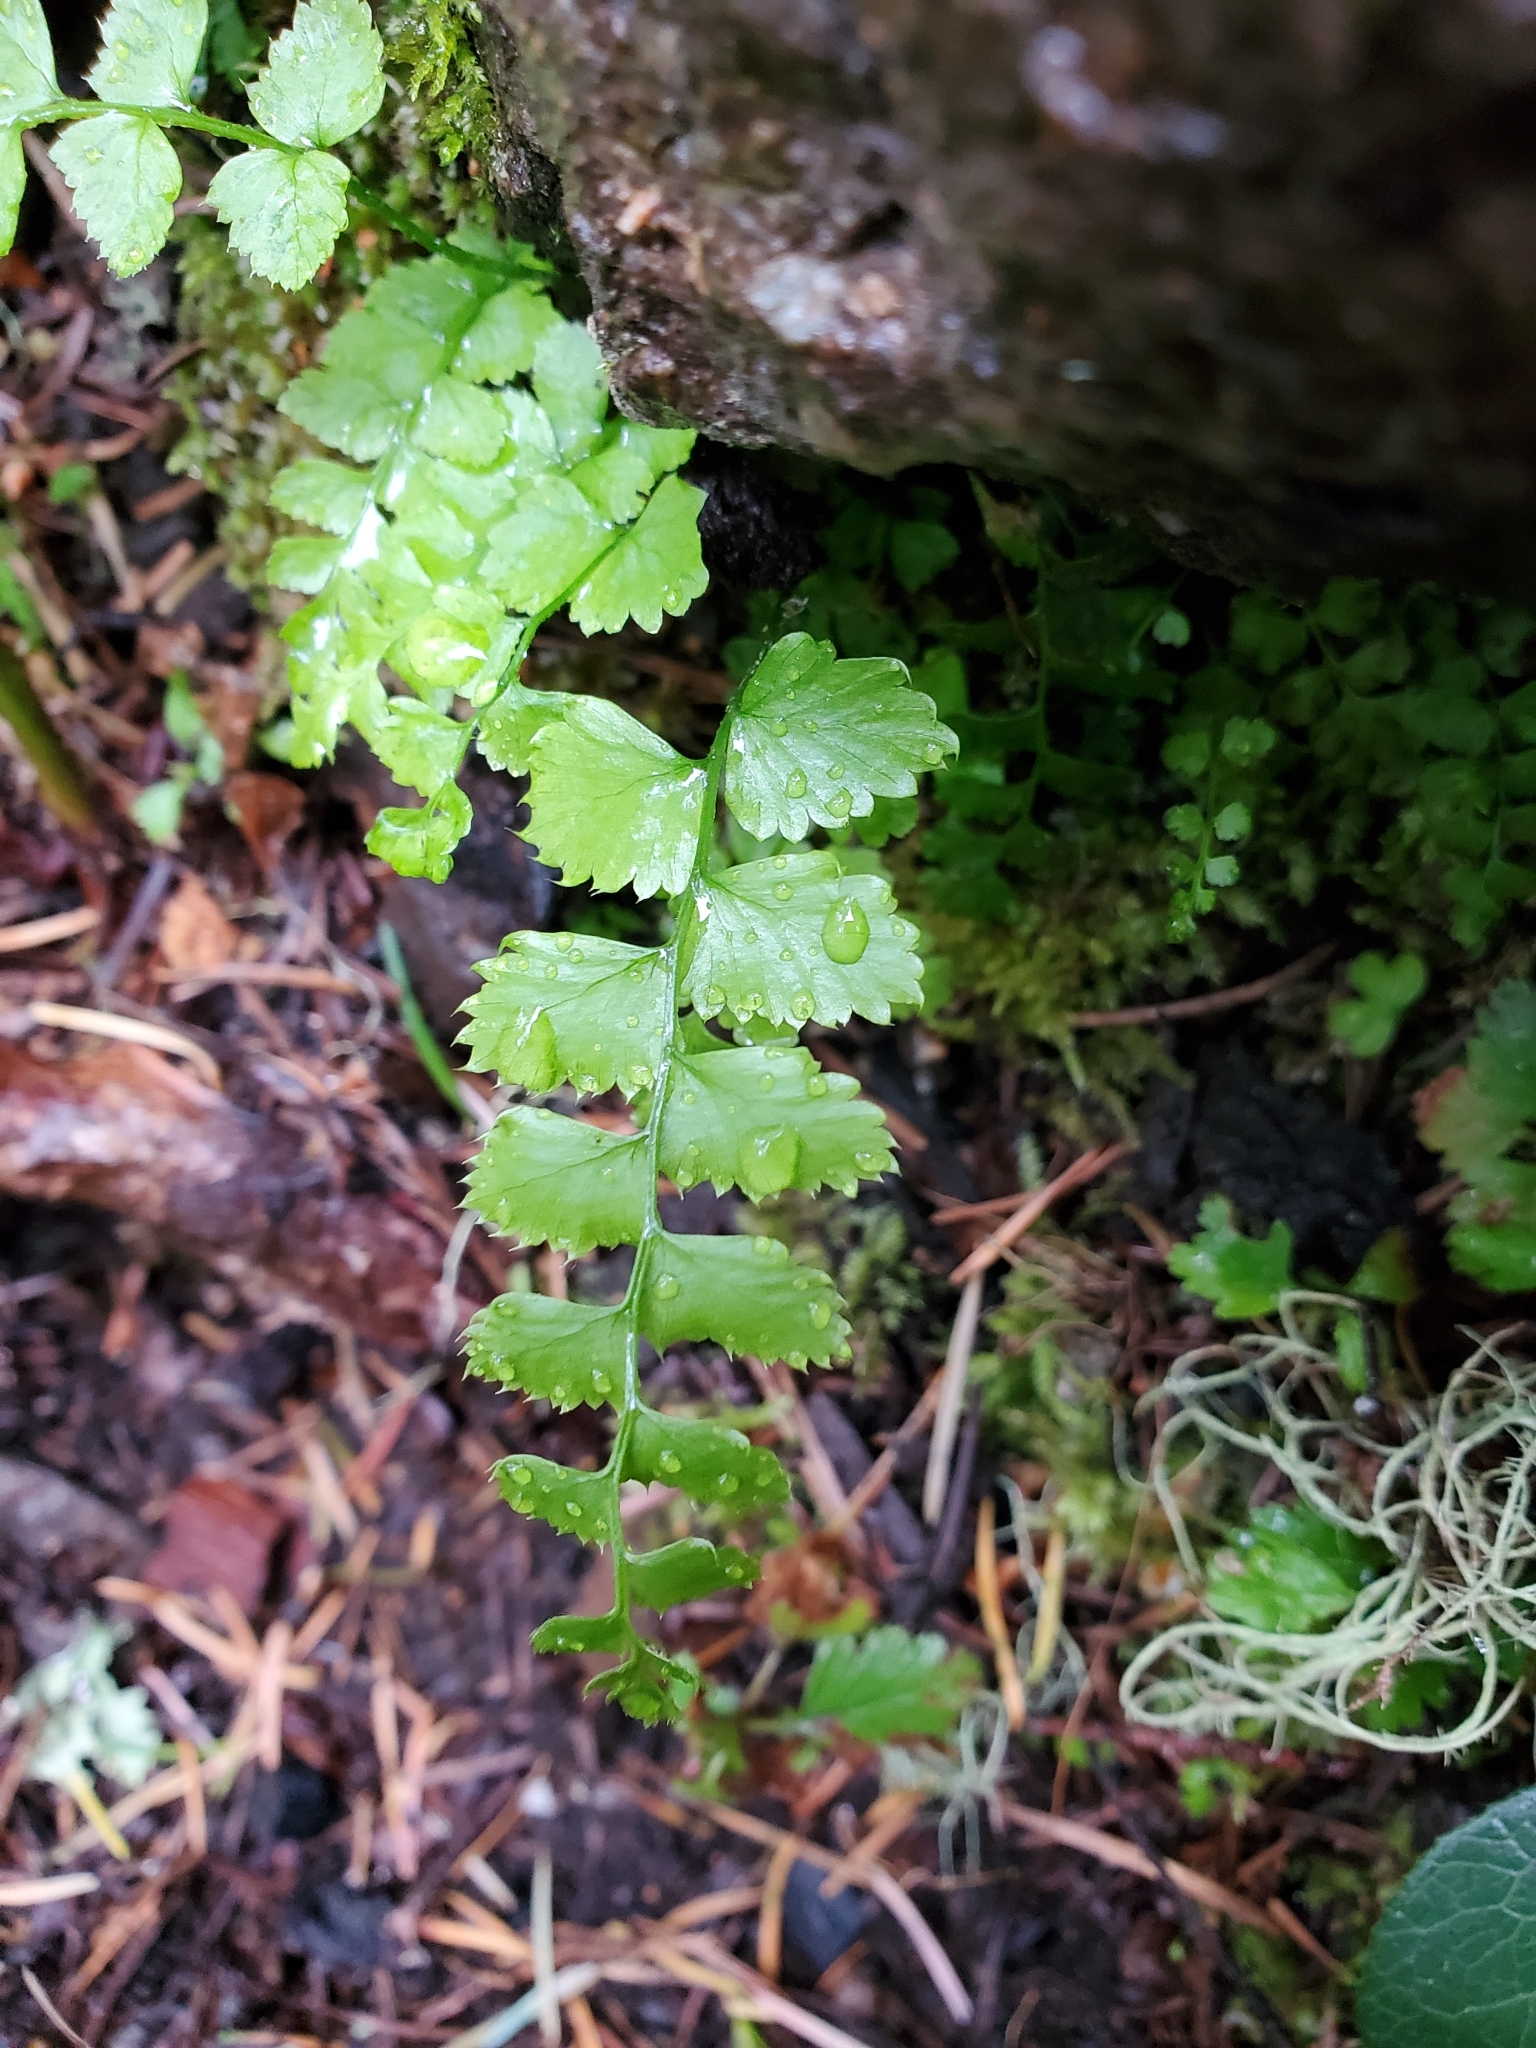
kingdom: Plantae
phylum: Tracheophyta
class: Polypodiopsida
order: Polypodiales
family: Dryopteridaceae
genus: Polystichum
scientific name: Polystichum munitum
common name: Western sword-fern
